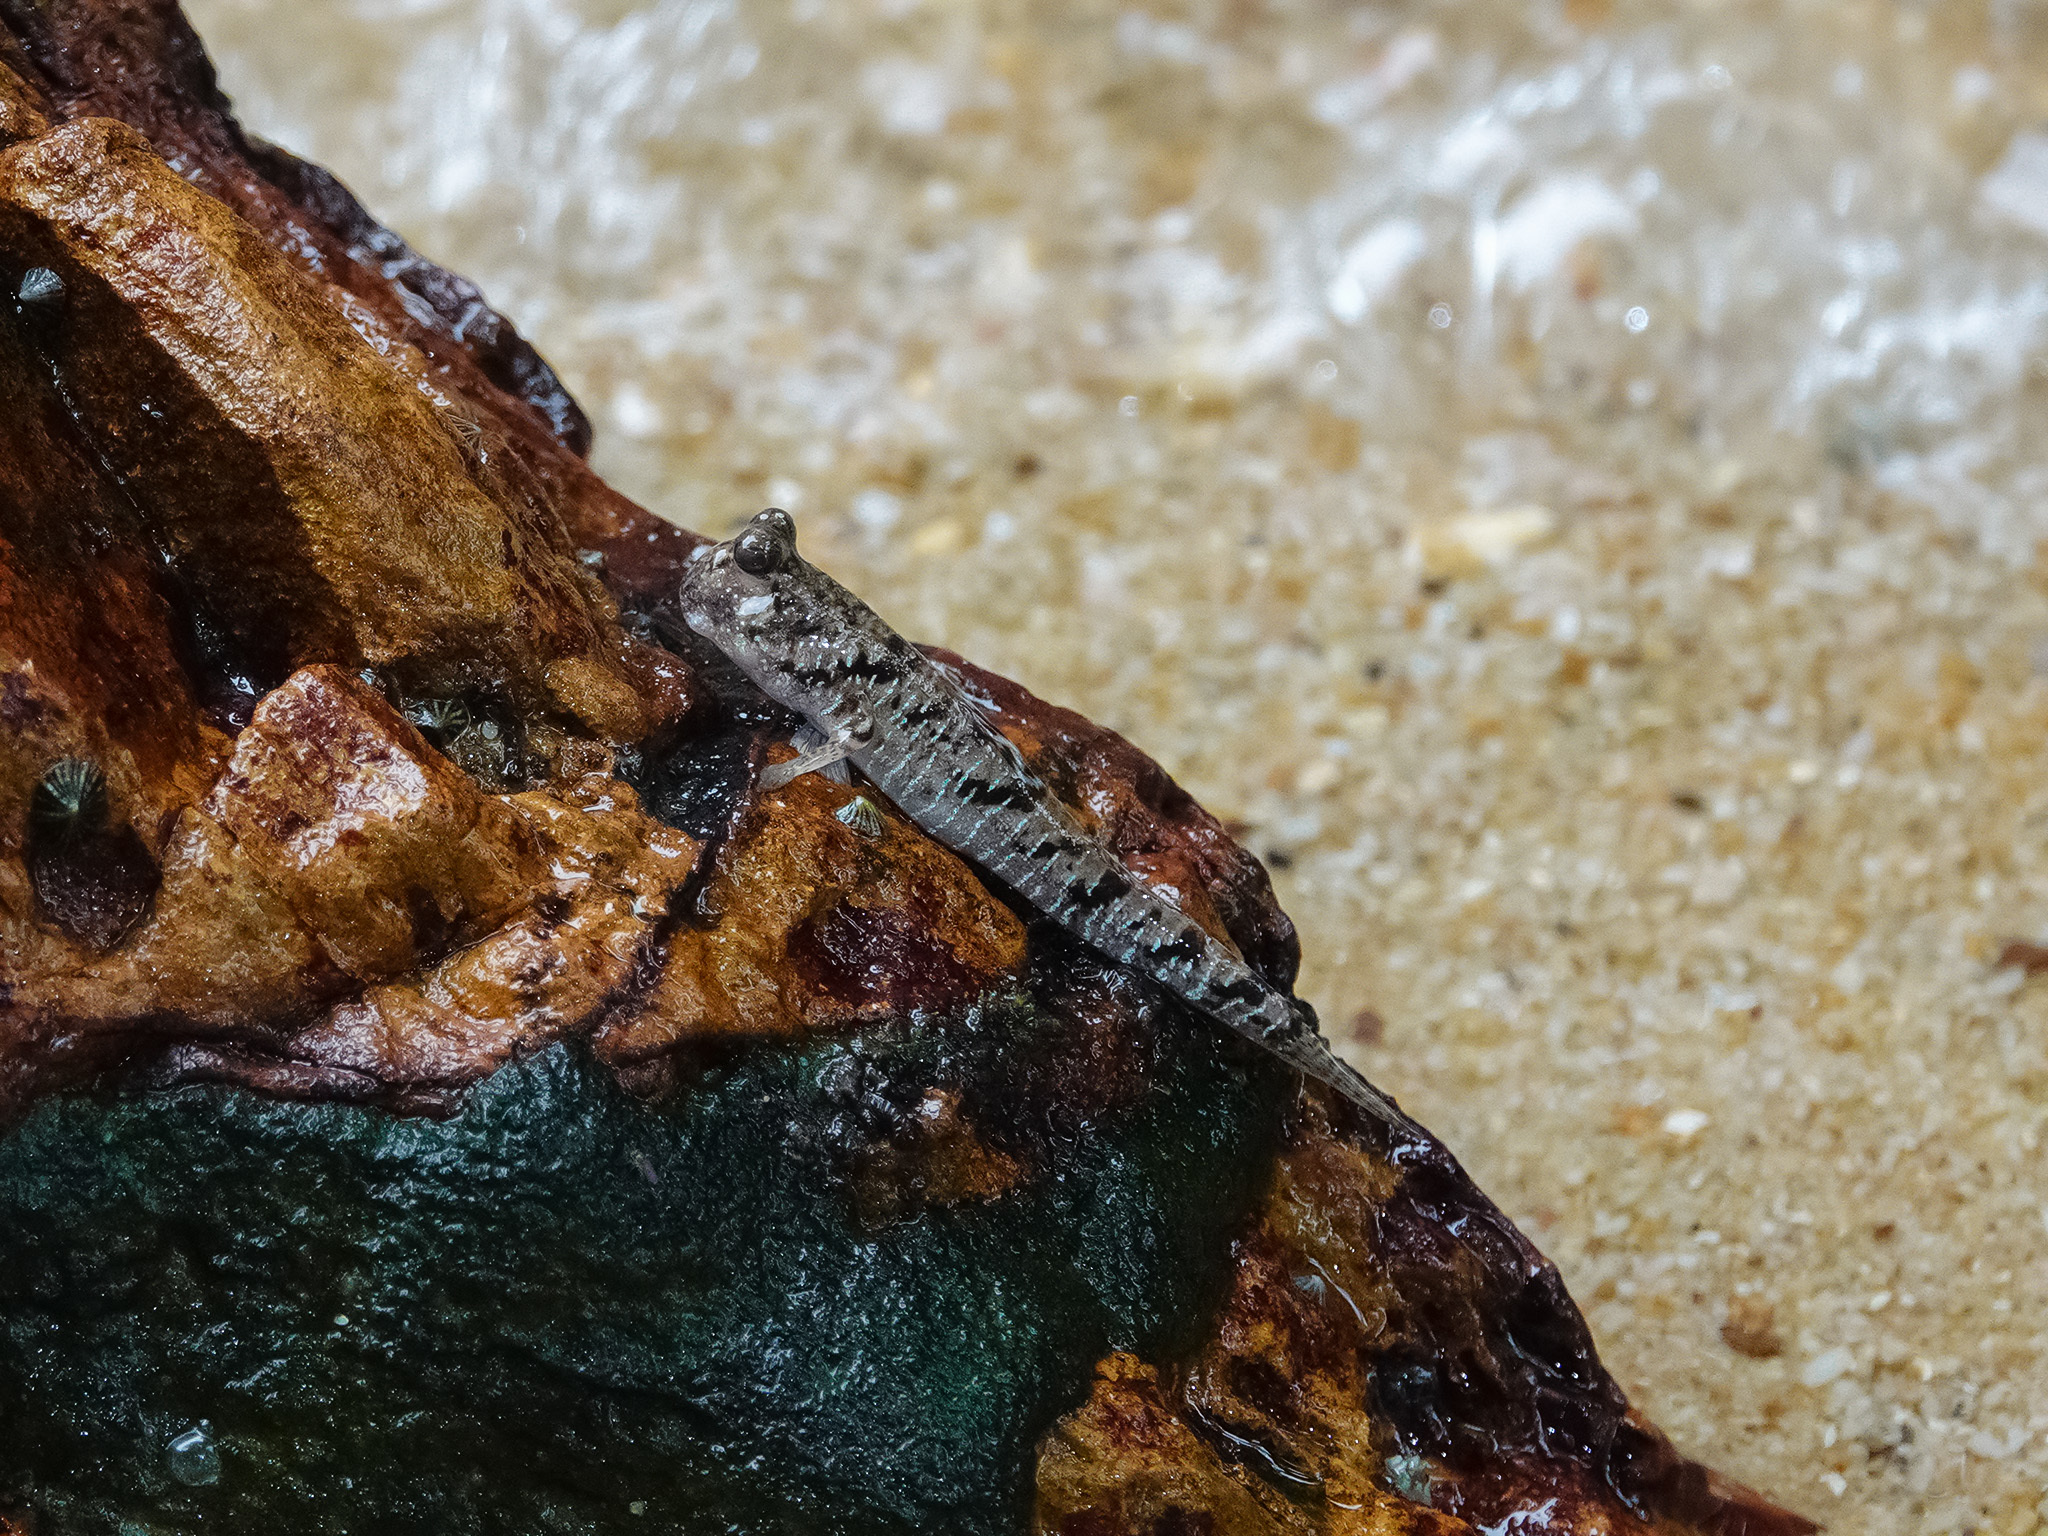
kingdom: Animalia
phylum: Chordata
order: Perciformes
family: Gobiidae
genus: Periophthalmus
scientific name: Periophthalmus argentilineatus
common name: Barred mudskipper
